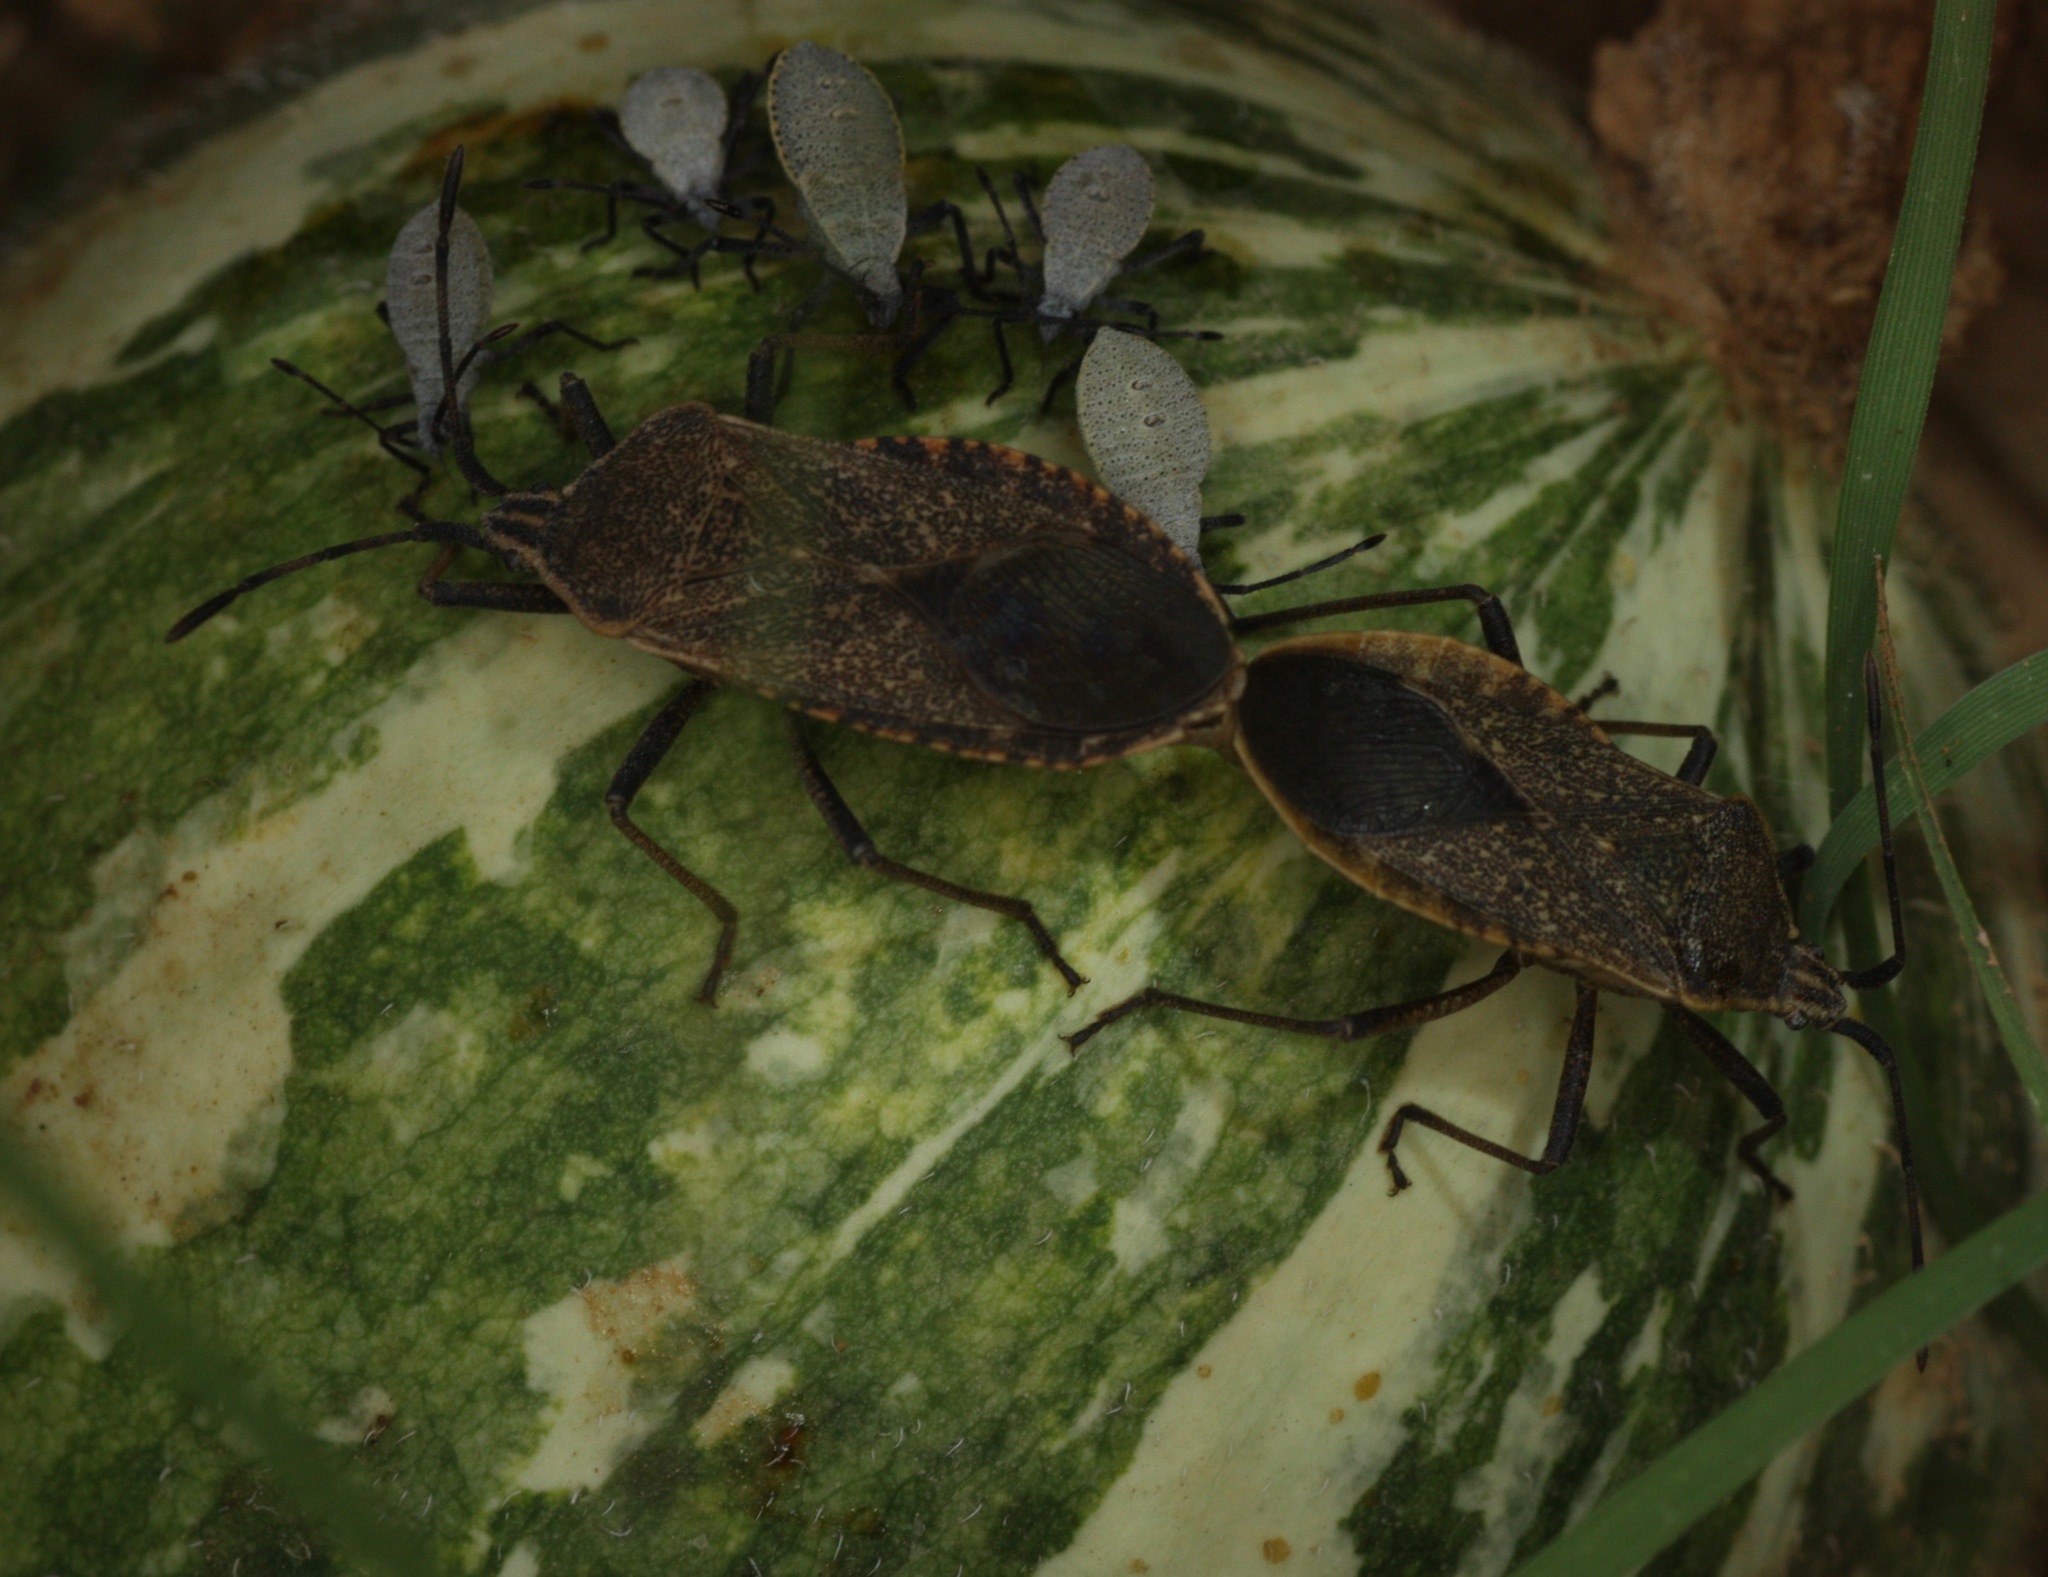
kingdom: Animalia
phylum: Arthropoda
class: Insecta
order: Hemiptera
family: Coreidae
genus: Anasa
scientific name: Anasa tristis
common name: Squash bug
